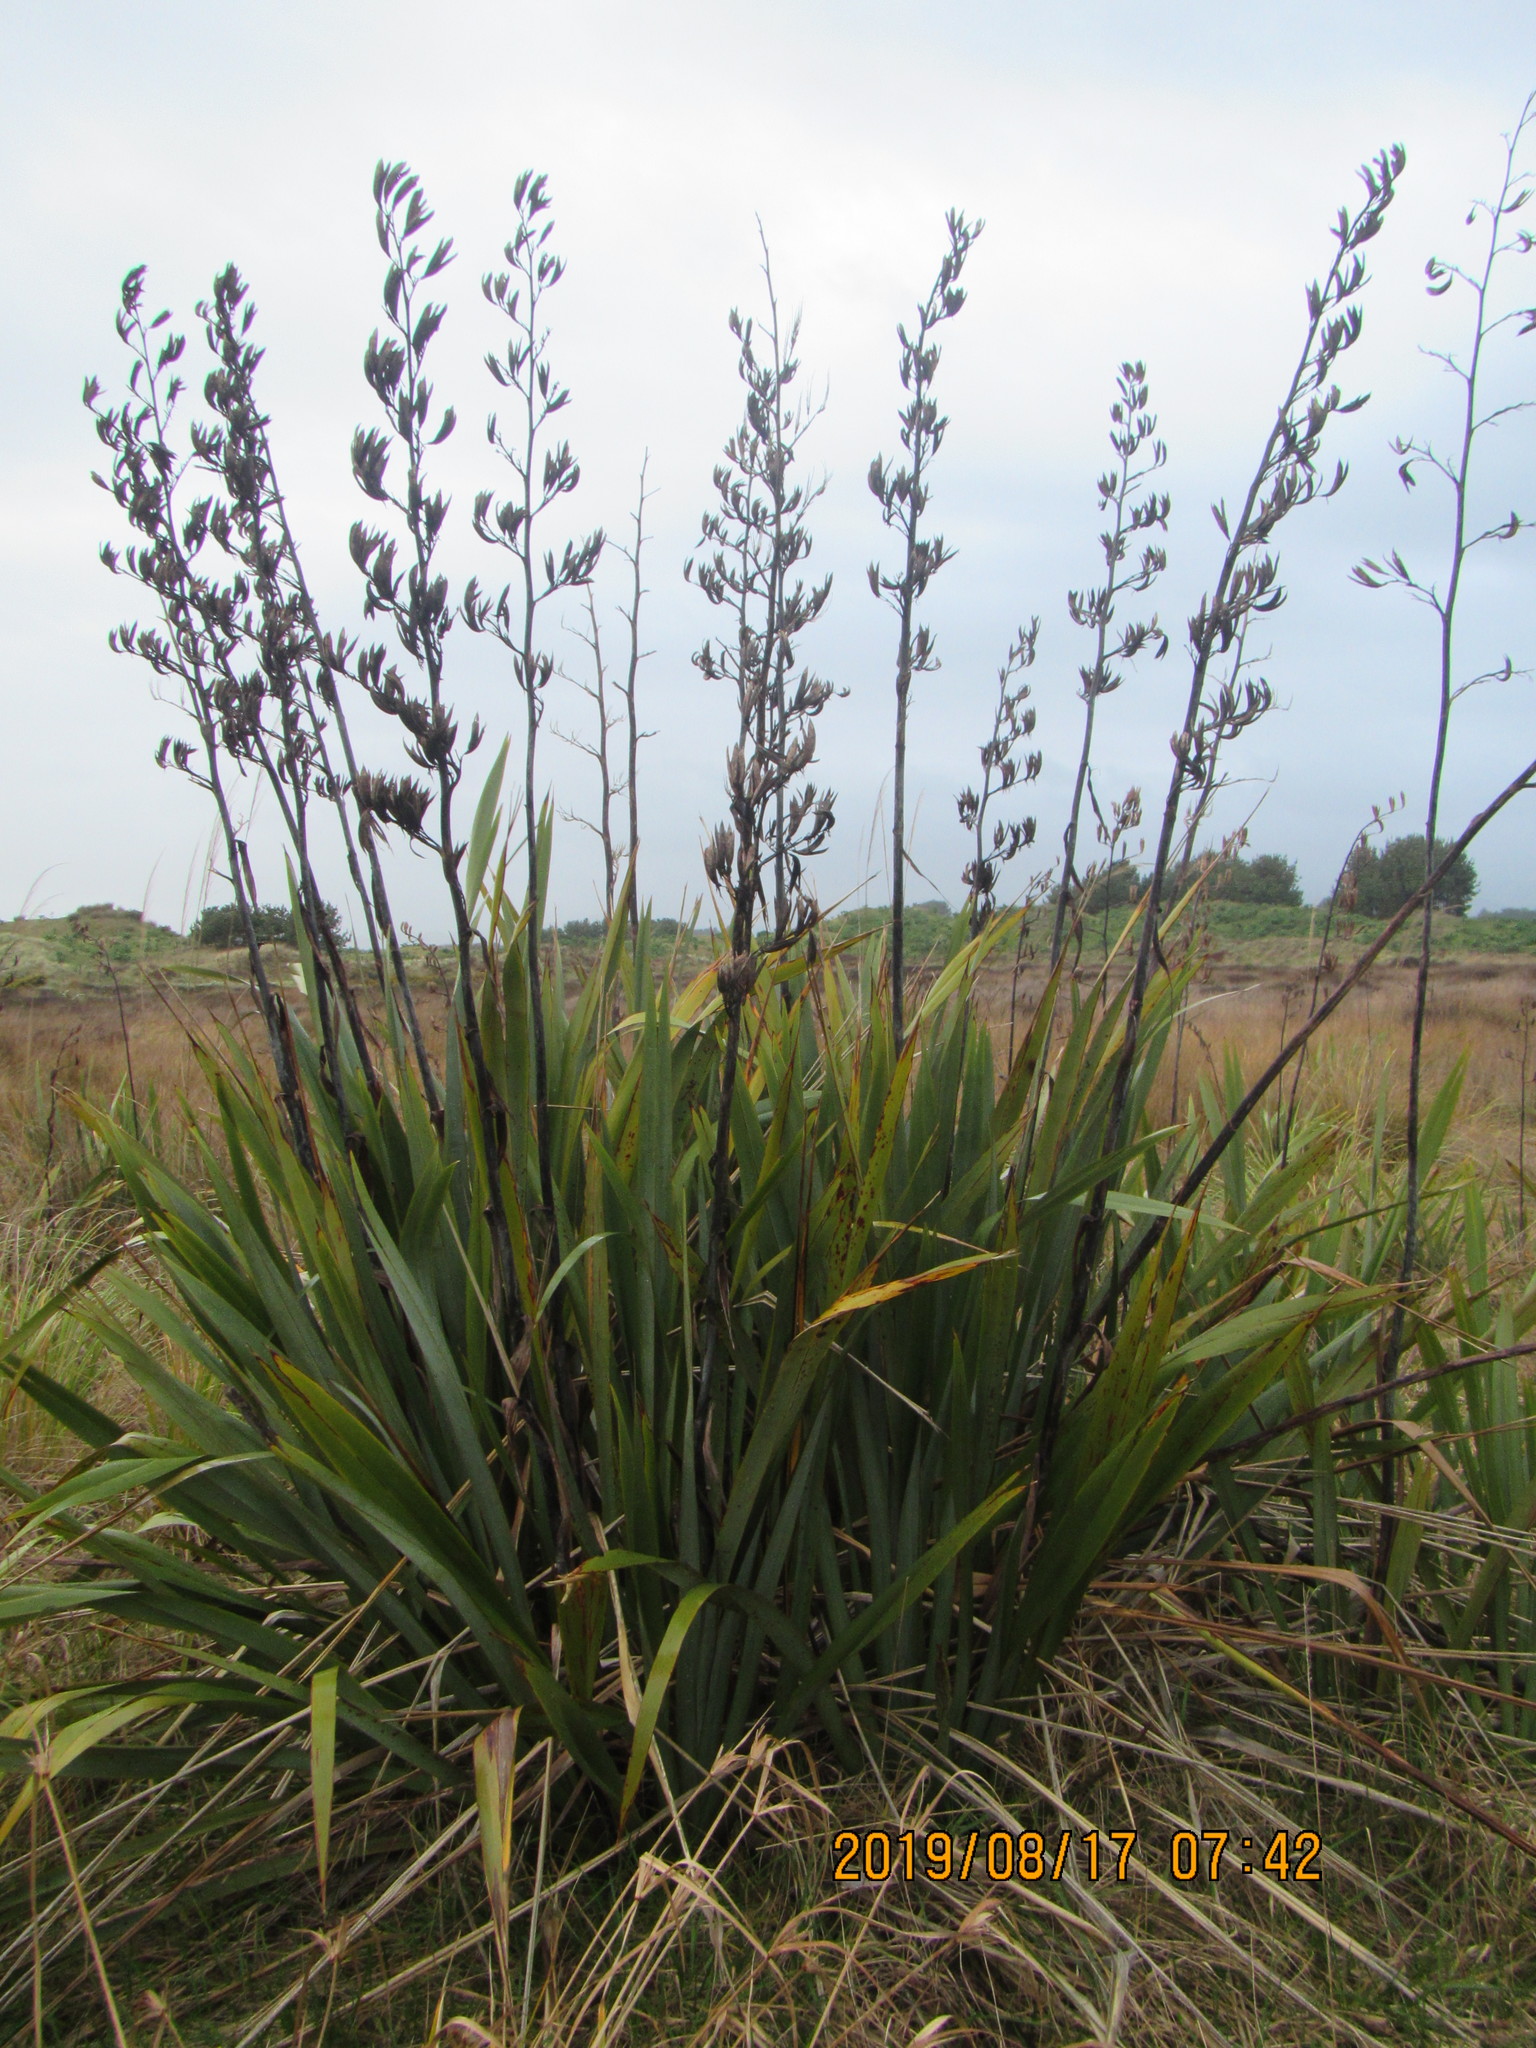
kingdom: Plantae
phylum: Tracheophyta
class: Liliopsida
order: Asparagales
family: Asphodelaceae
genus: Phormium
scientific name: Phormium tenax
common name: New zealand flax
